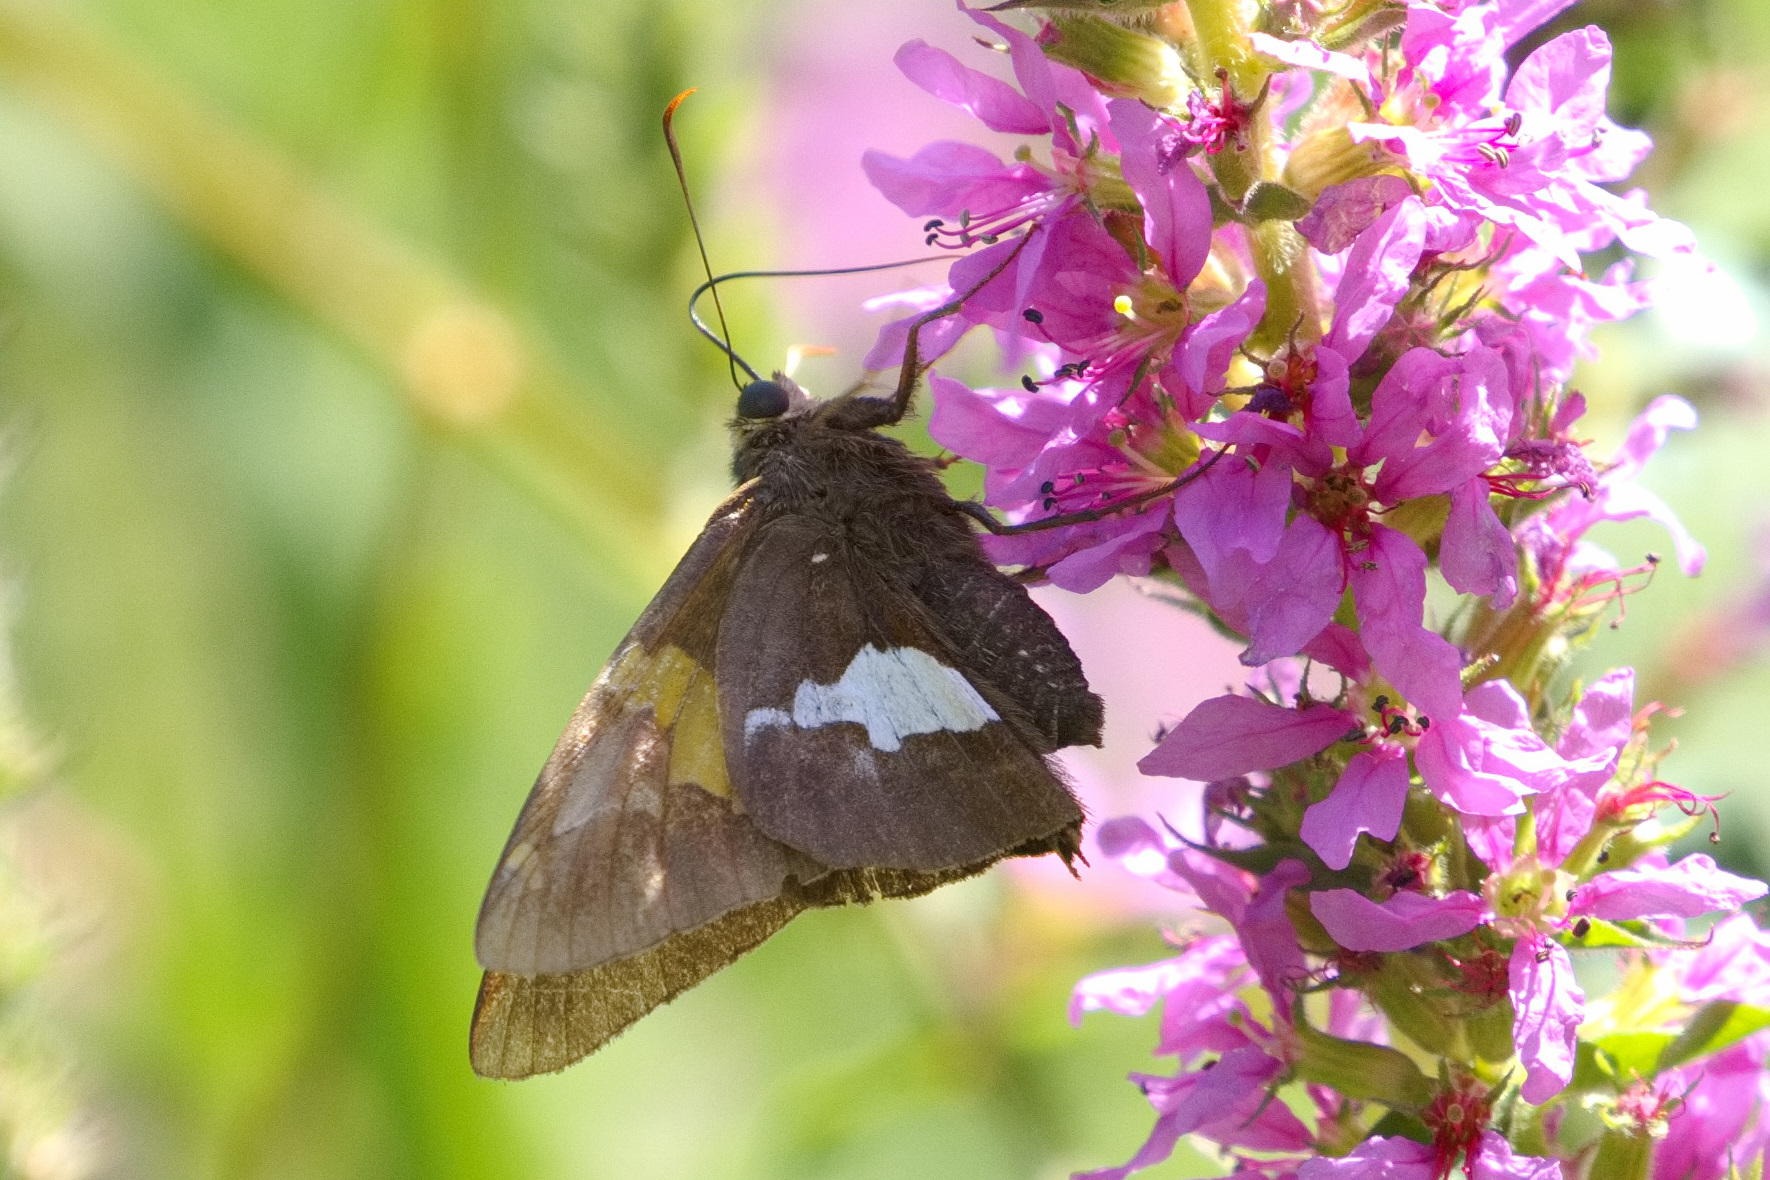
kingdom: Animalia
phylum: Arthropoda
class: Insecta
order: Lepidoptera
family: Hesperiidae
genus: Epargyreus
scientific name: Epargyreus clarus
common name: Silver-spotted skipper
